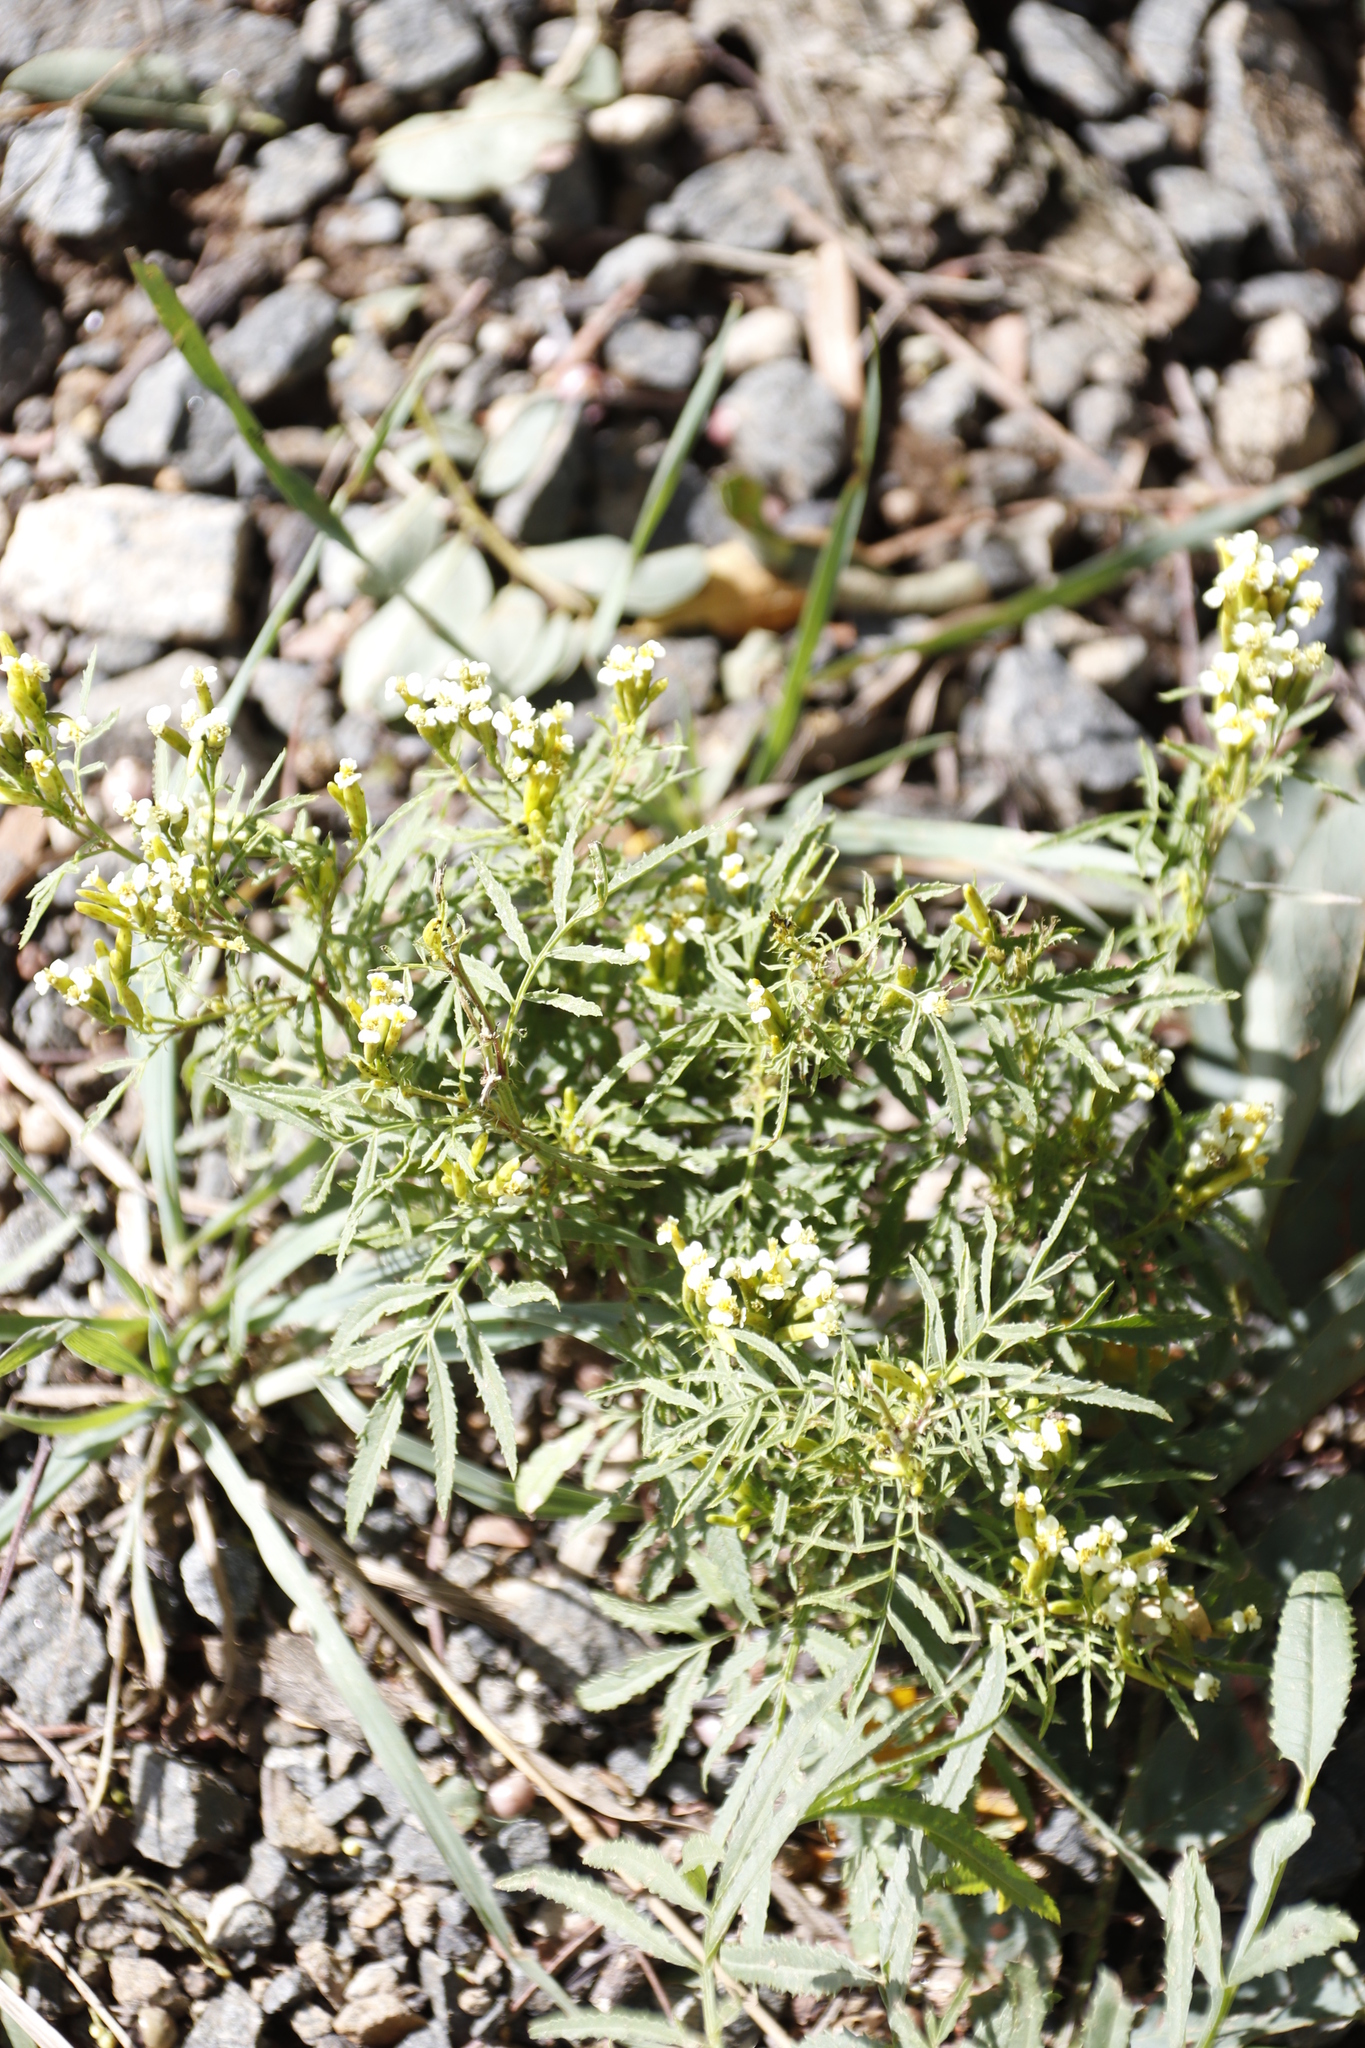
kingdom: Plantae
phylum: Tracheophyta
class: Magnoliopsida
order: Asterales
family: Asteraceae
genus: Tagetes
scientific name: Tagetes minuta
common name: Muster john henry
